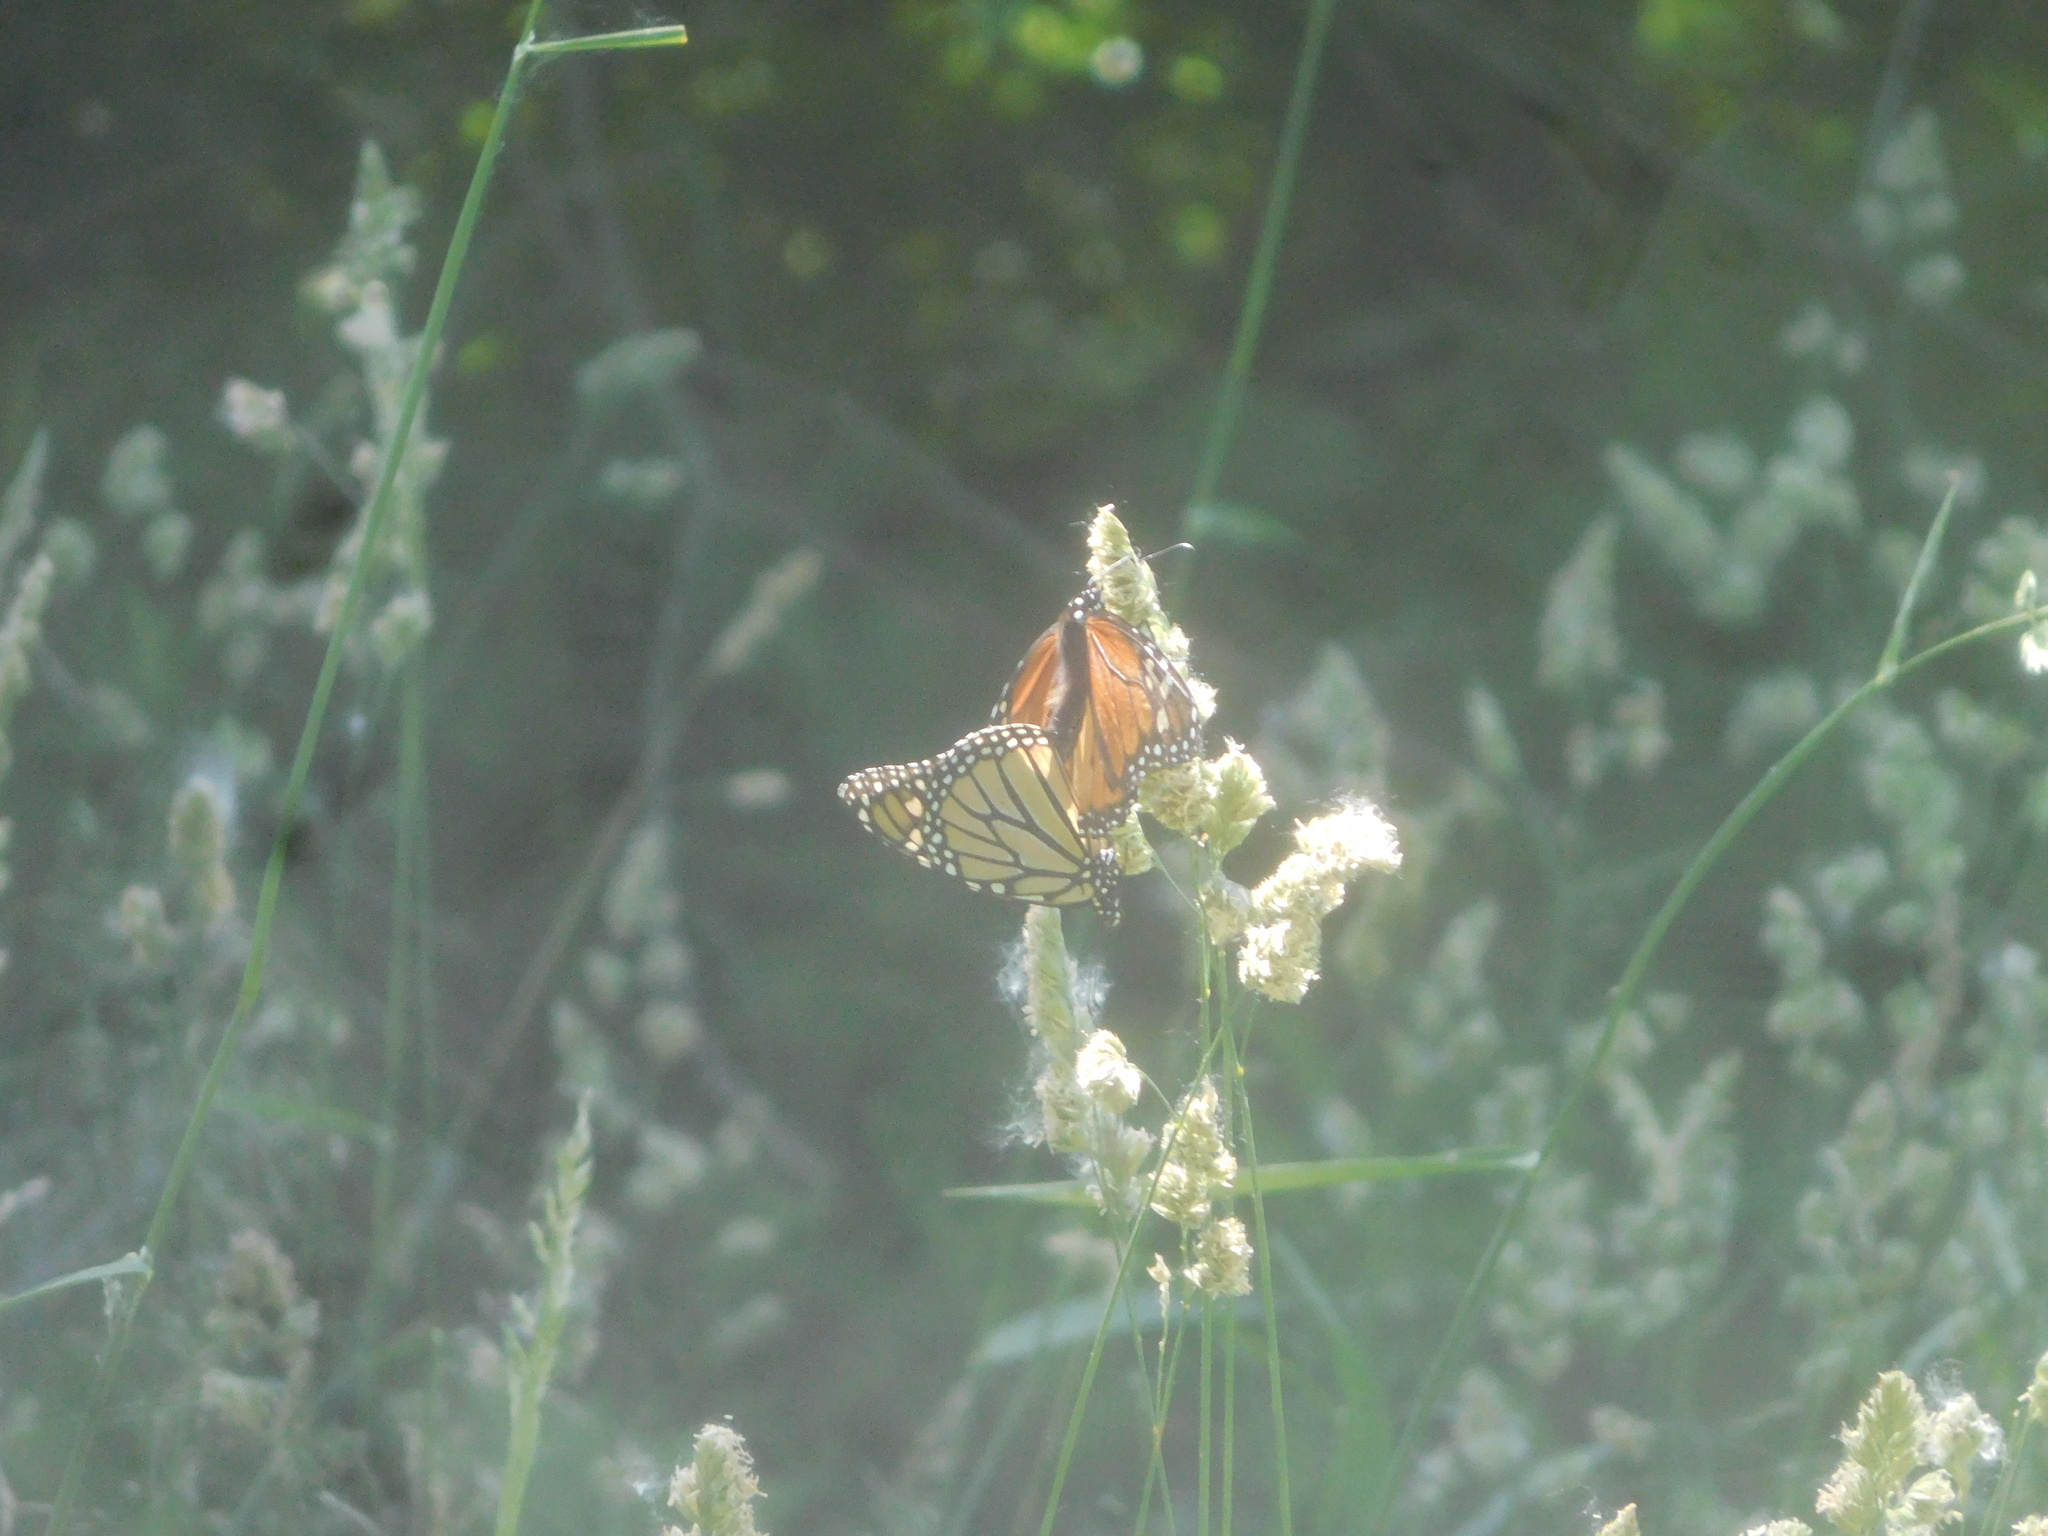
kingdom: Animalia
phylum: Arthropoda
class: Insecta
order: Lepidoptera
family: Nymphalidae
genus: Danaus
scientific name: Danaus plexippus
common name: Monarch
